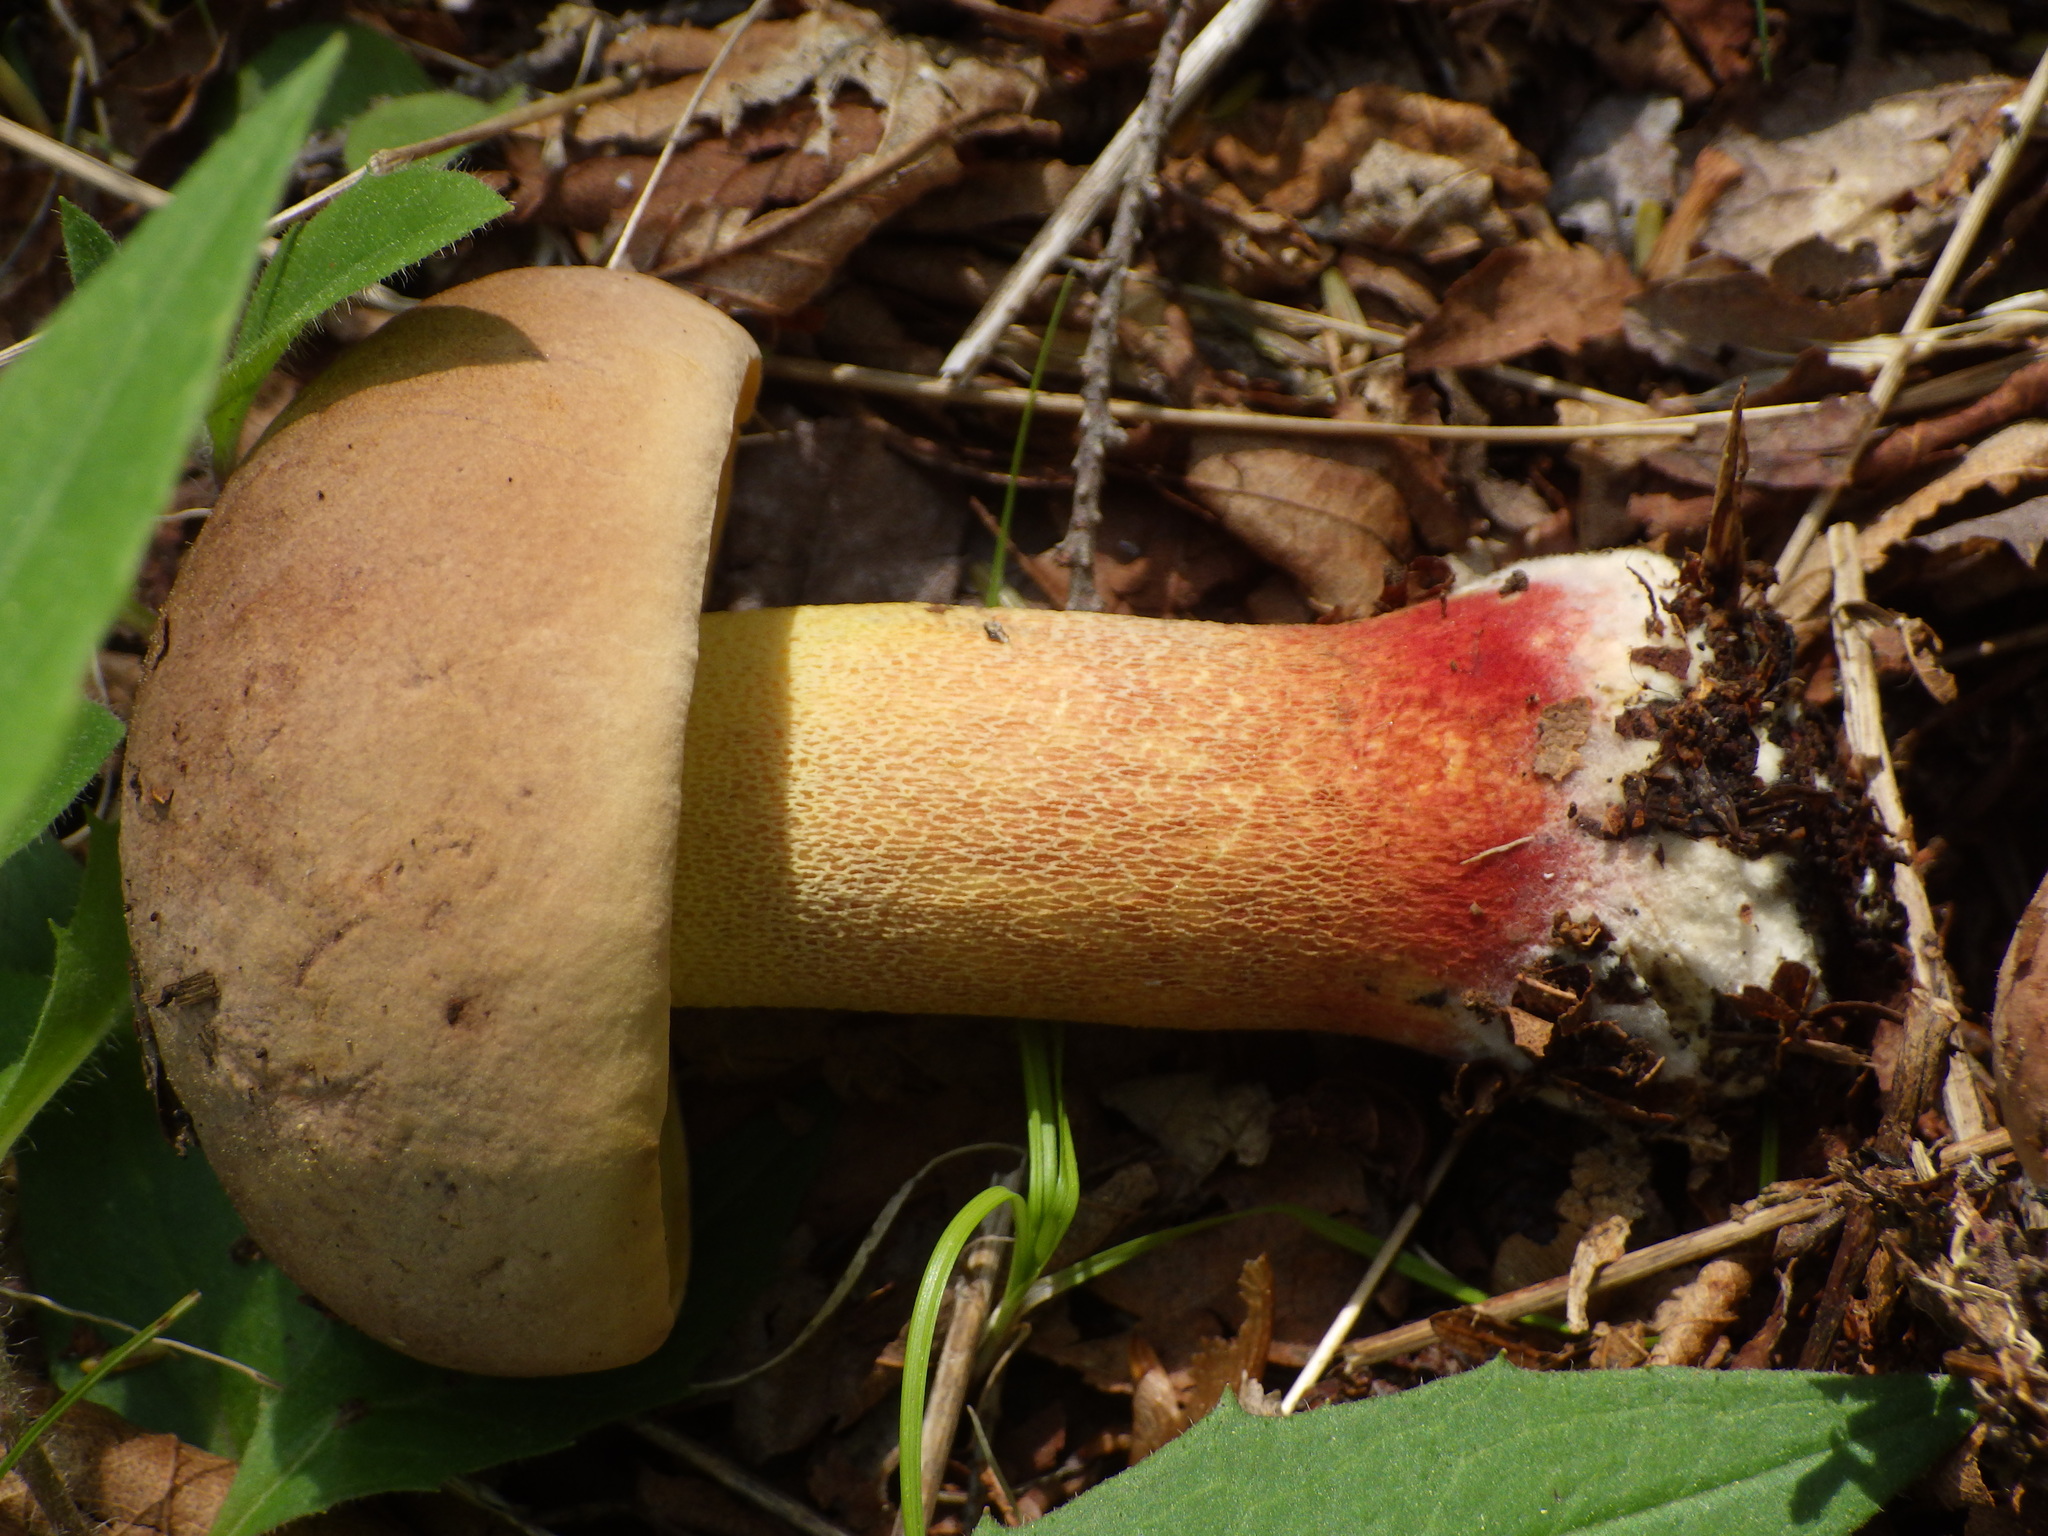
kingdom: Fungi
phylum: Basidiomycota
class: Agaricomycetes
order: Boletales
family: Boletaceae
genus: Butyriboletus
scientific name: Butyriboletus brunneus
